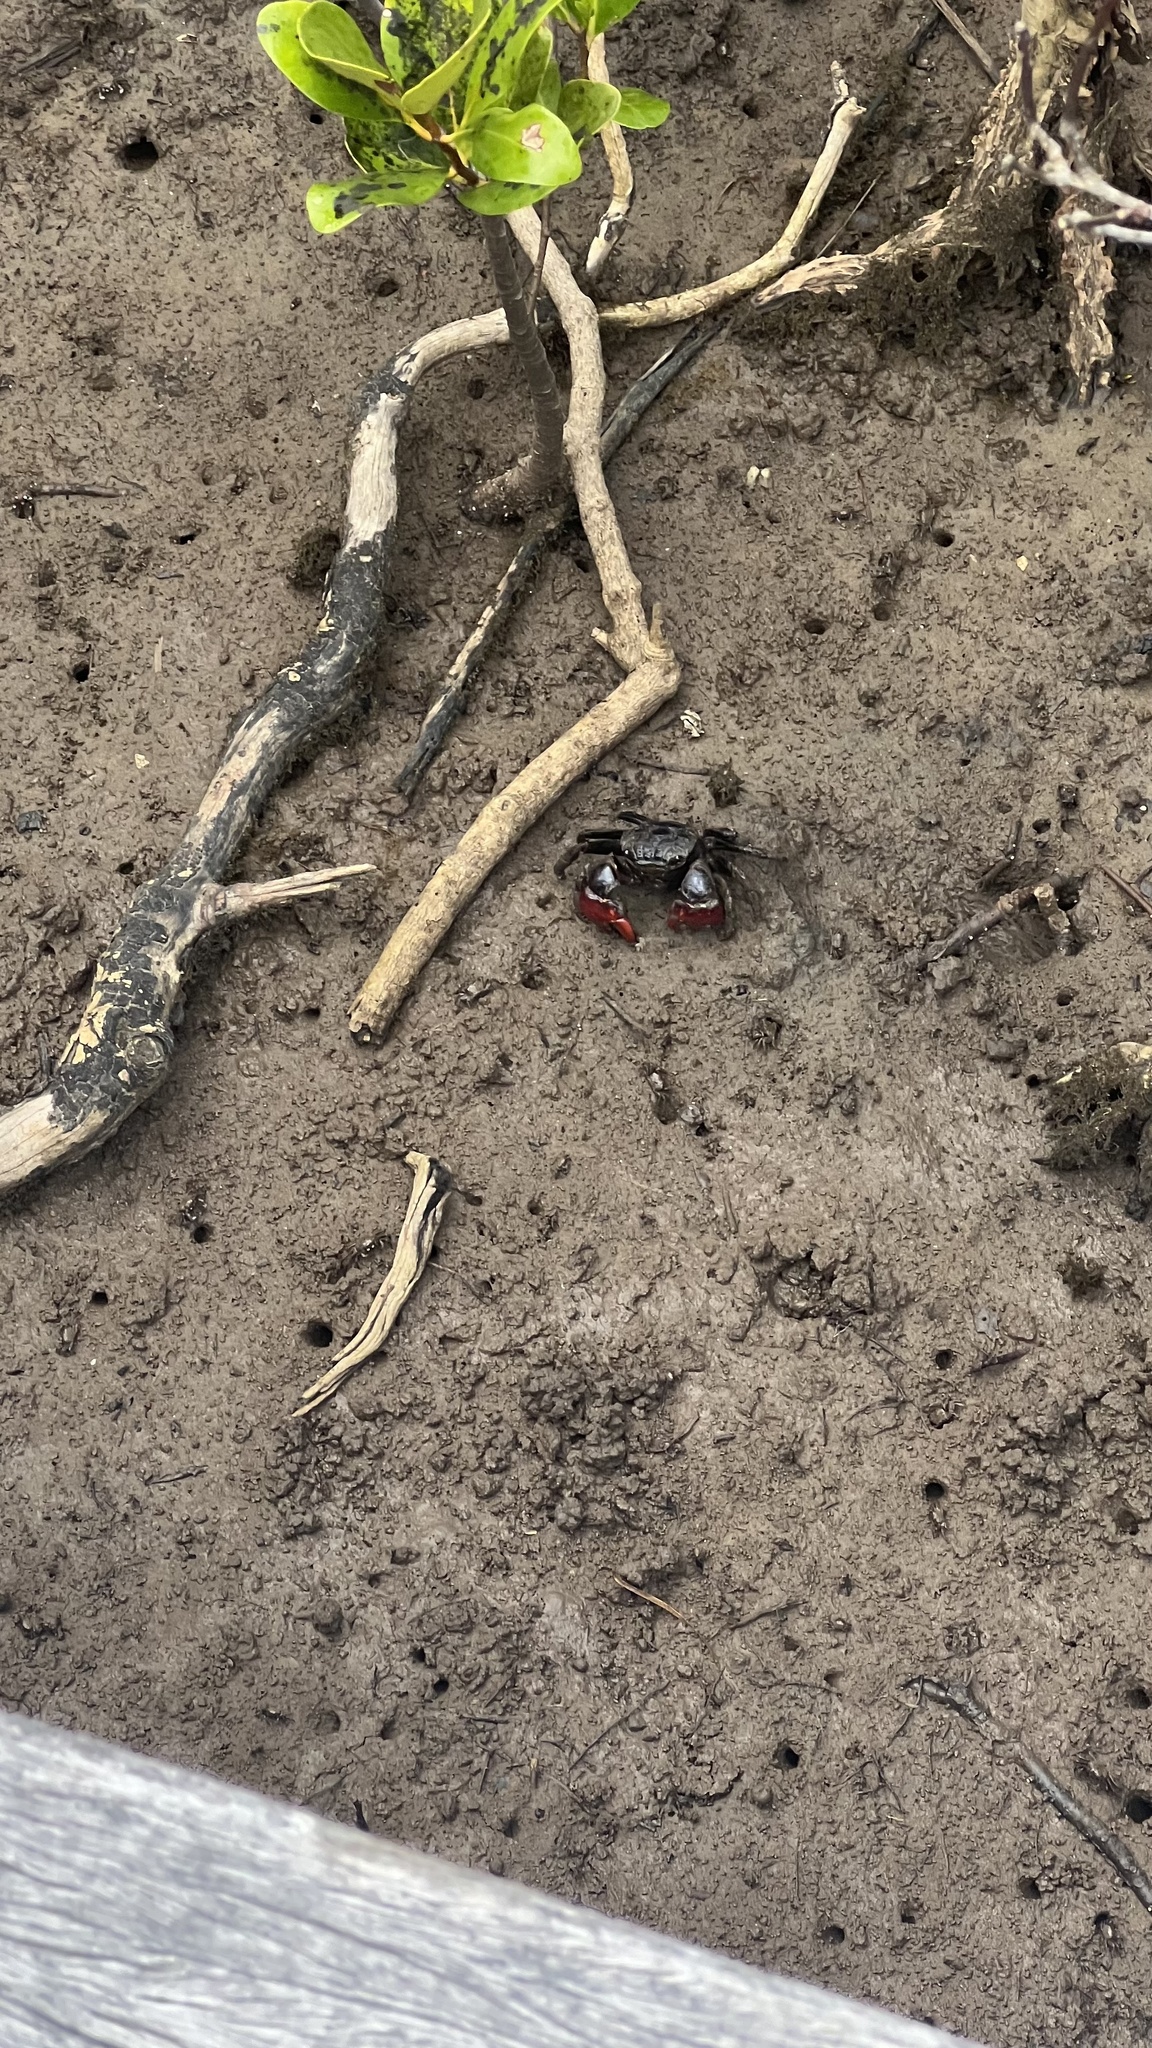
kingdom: Animalia
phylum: Arthropoda
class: Malacostraca
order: Decapoda
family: Sesarmidae
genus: Neosarmatium
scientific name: Neosarmatium trispinosum
